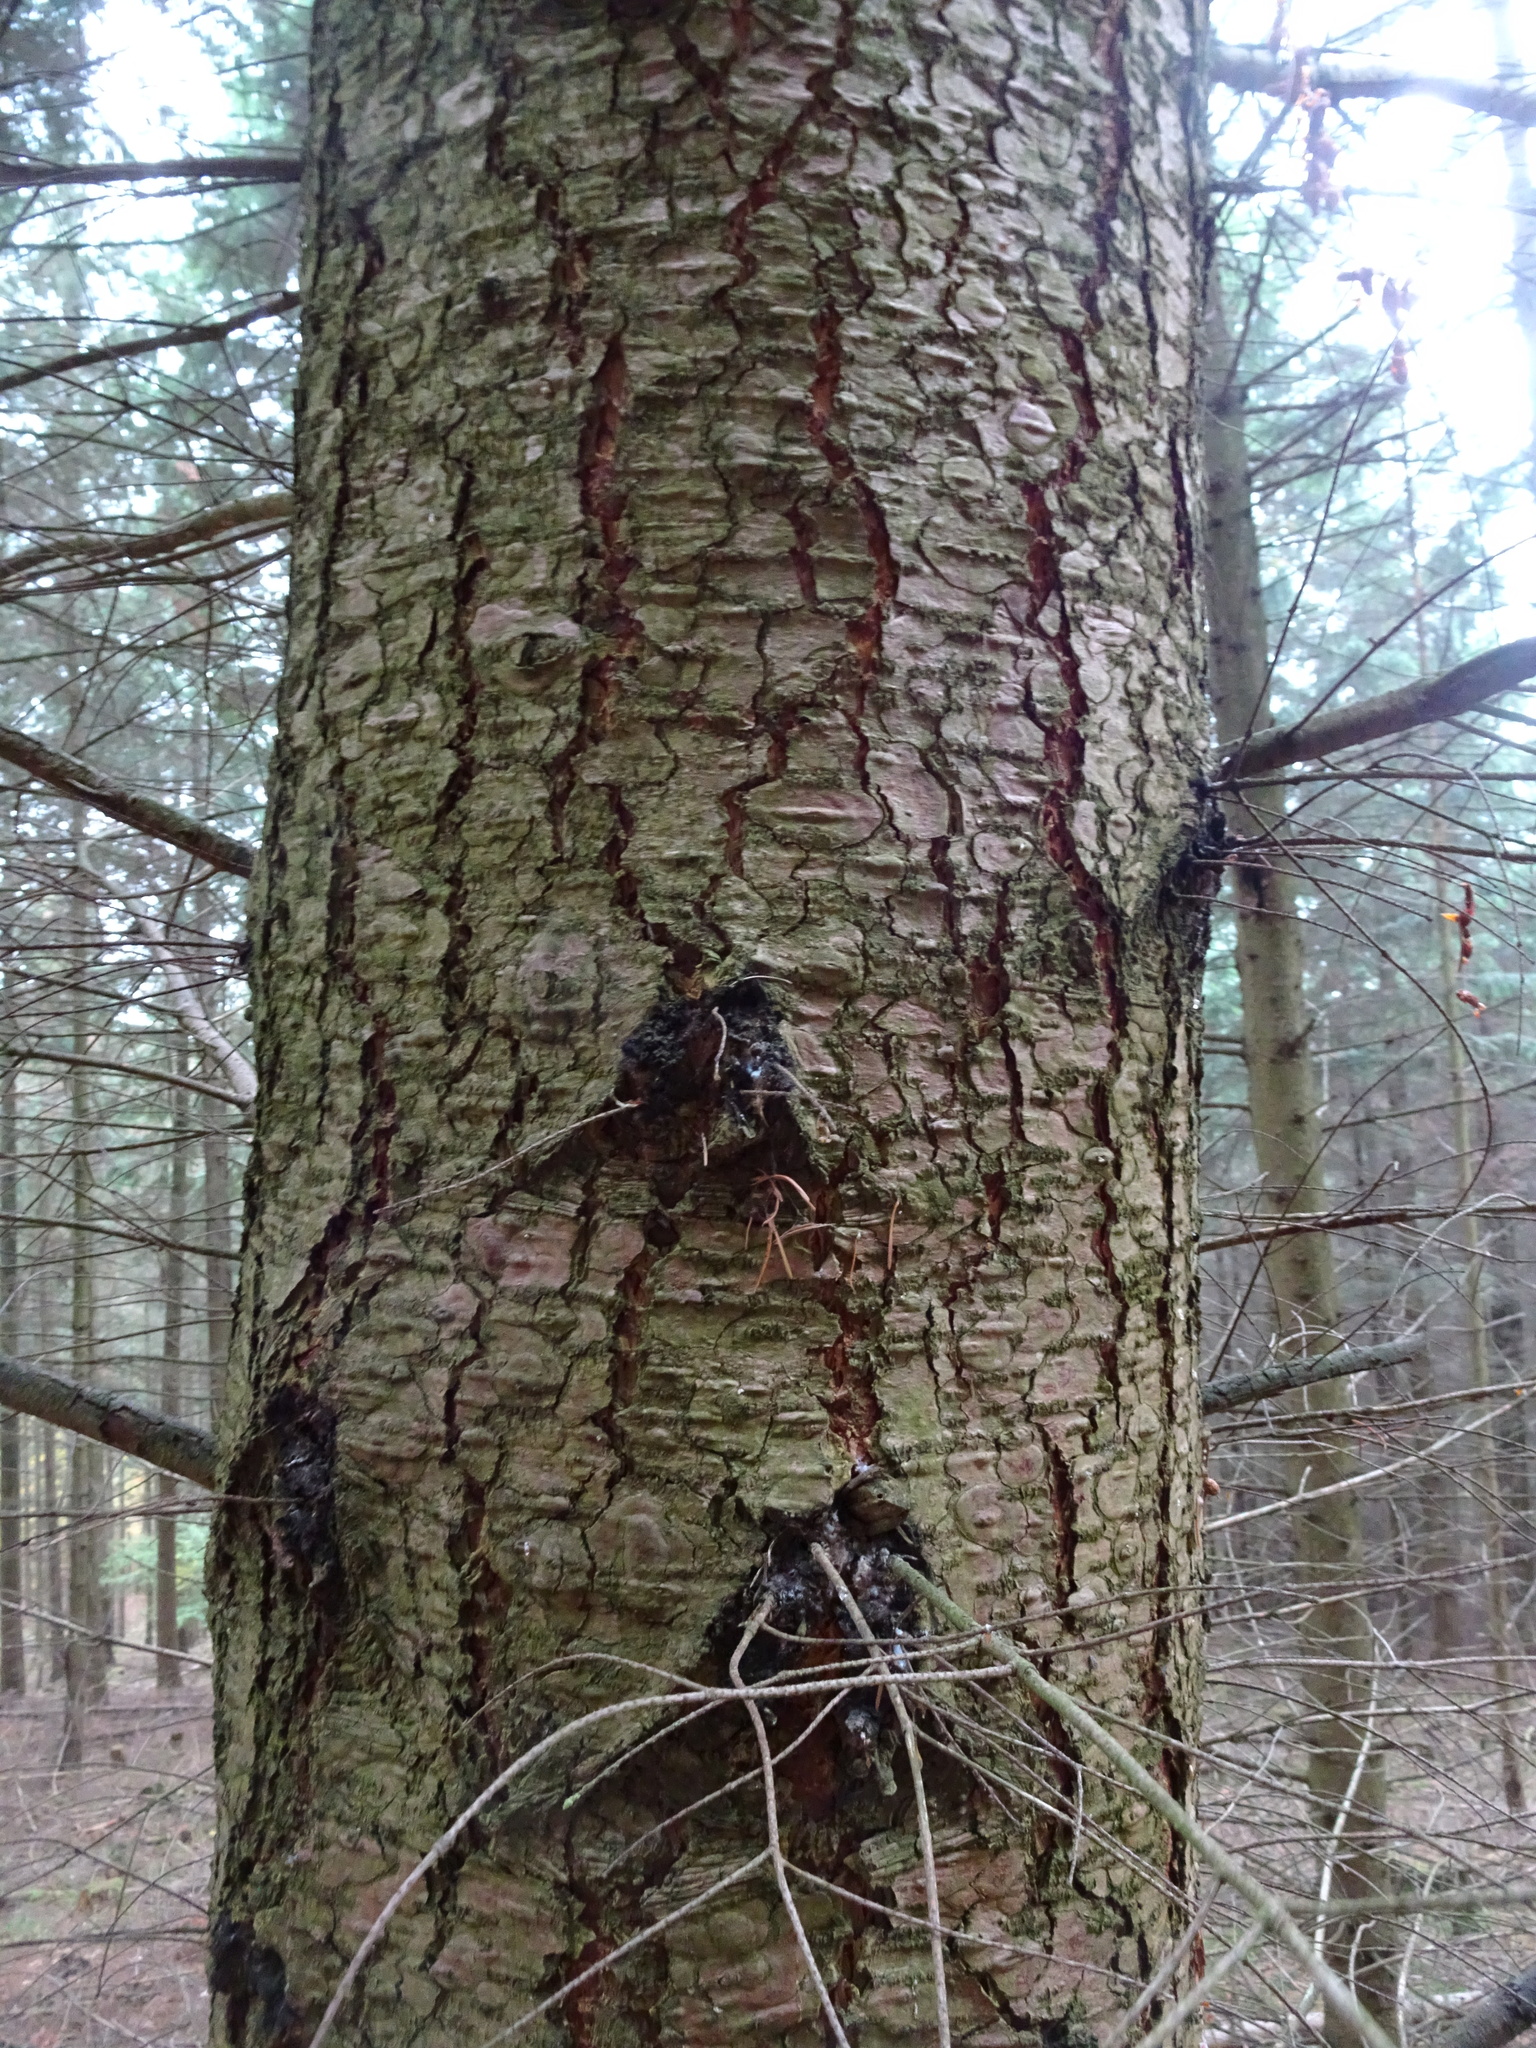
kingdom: Plantae
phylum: Tracheophyta
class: Pinopsida
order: Pinales
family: Pinaceae
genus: Larix
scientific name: Larix decidua
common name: European larch
